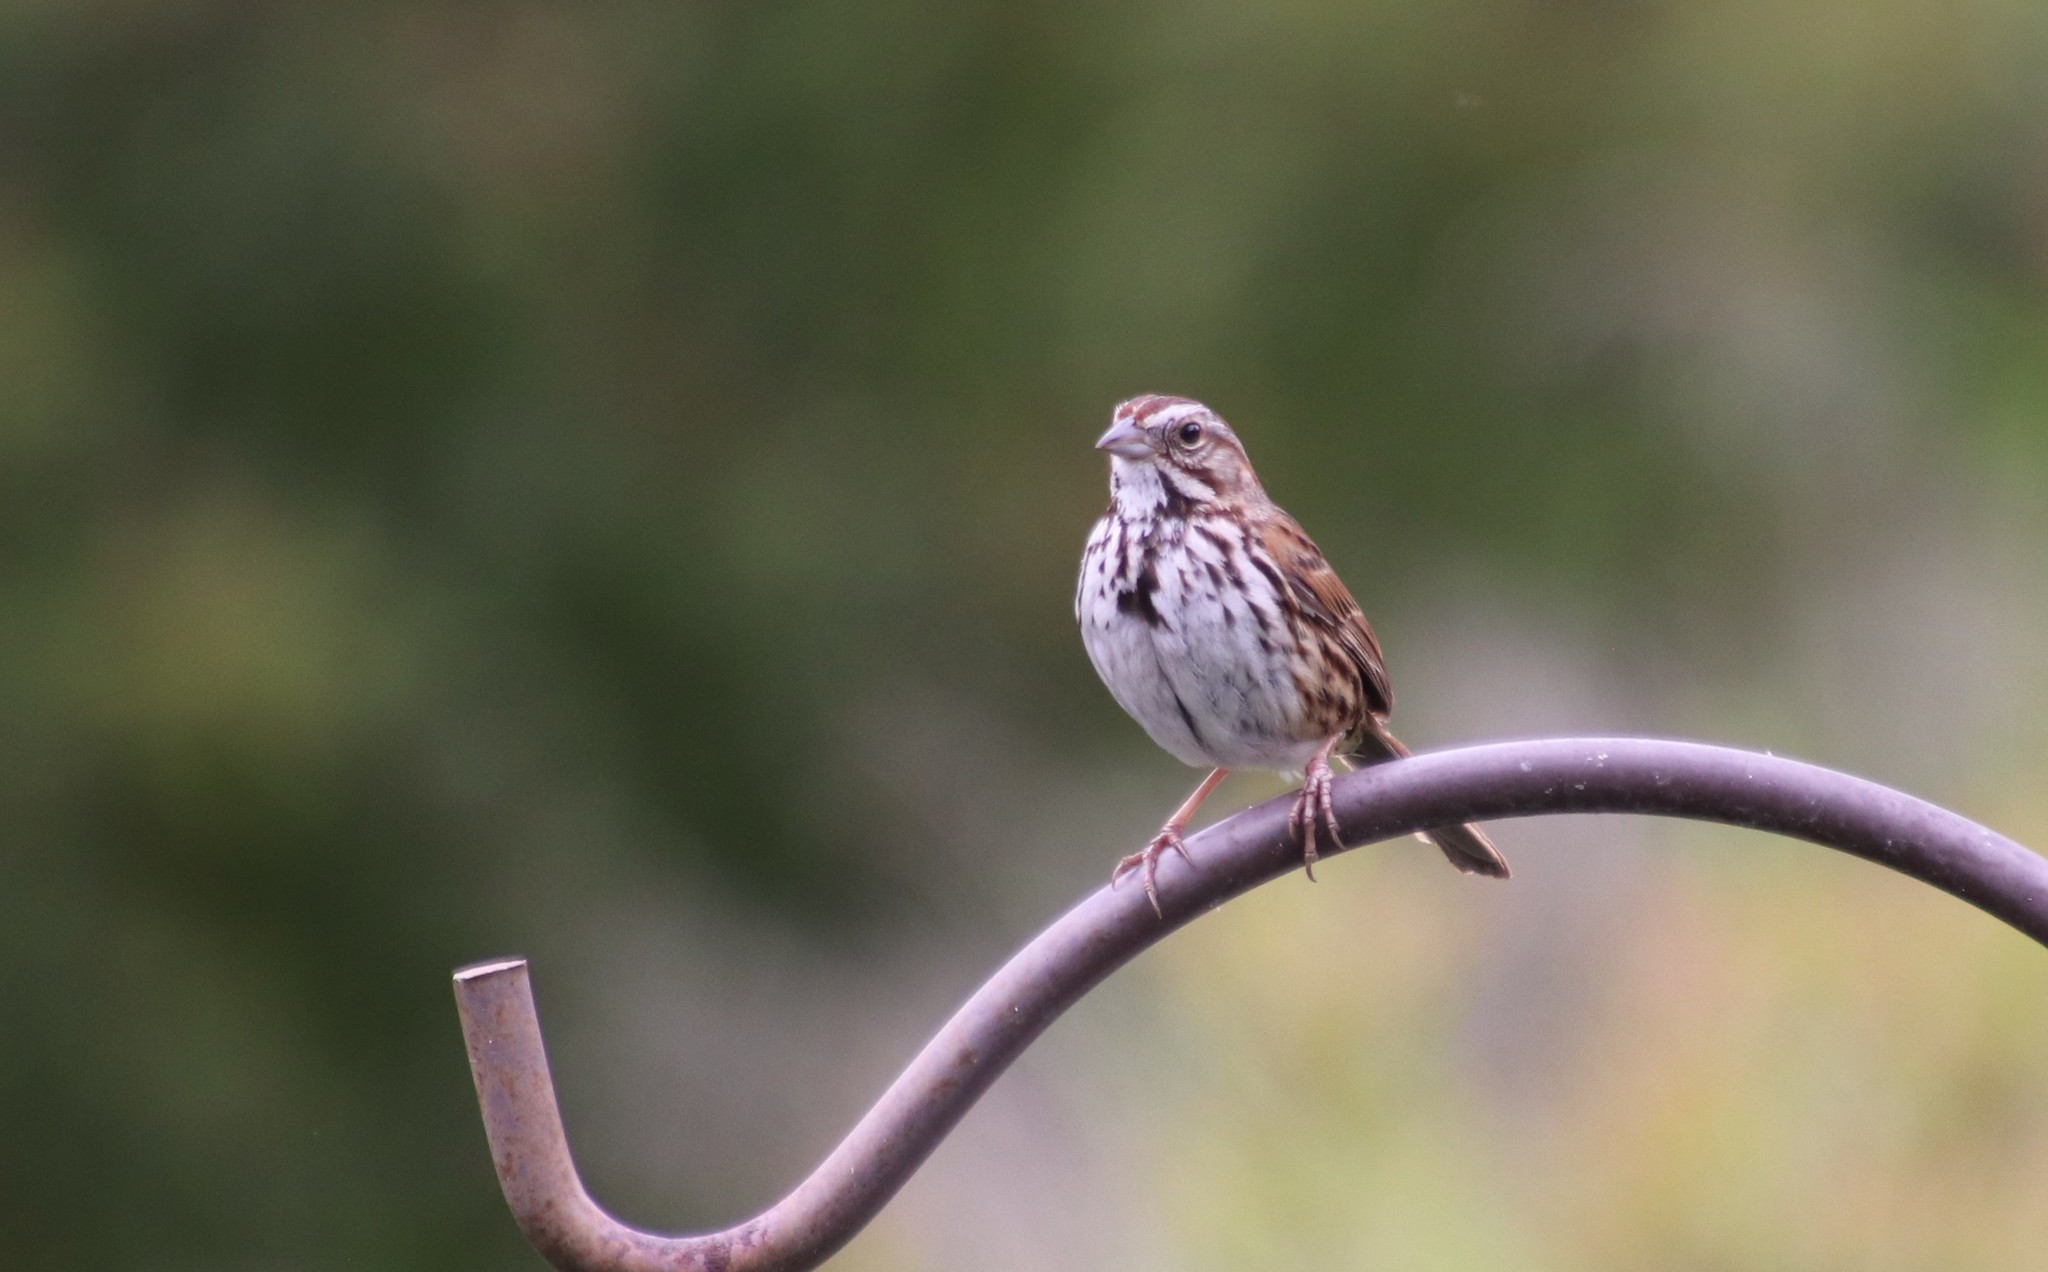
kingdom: Animalia
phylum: Chordata
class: Aves
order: Passeriformes
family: Passerellidae
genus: Melospiza
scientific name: Melospiza melodia
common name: Song sparrow
